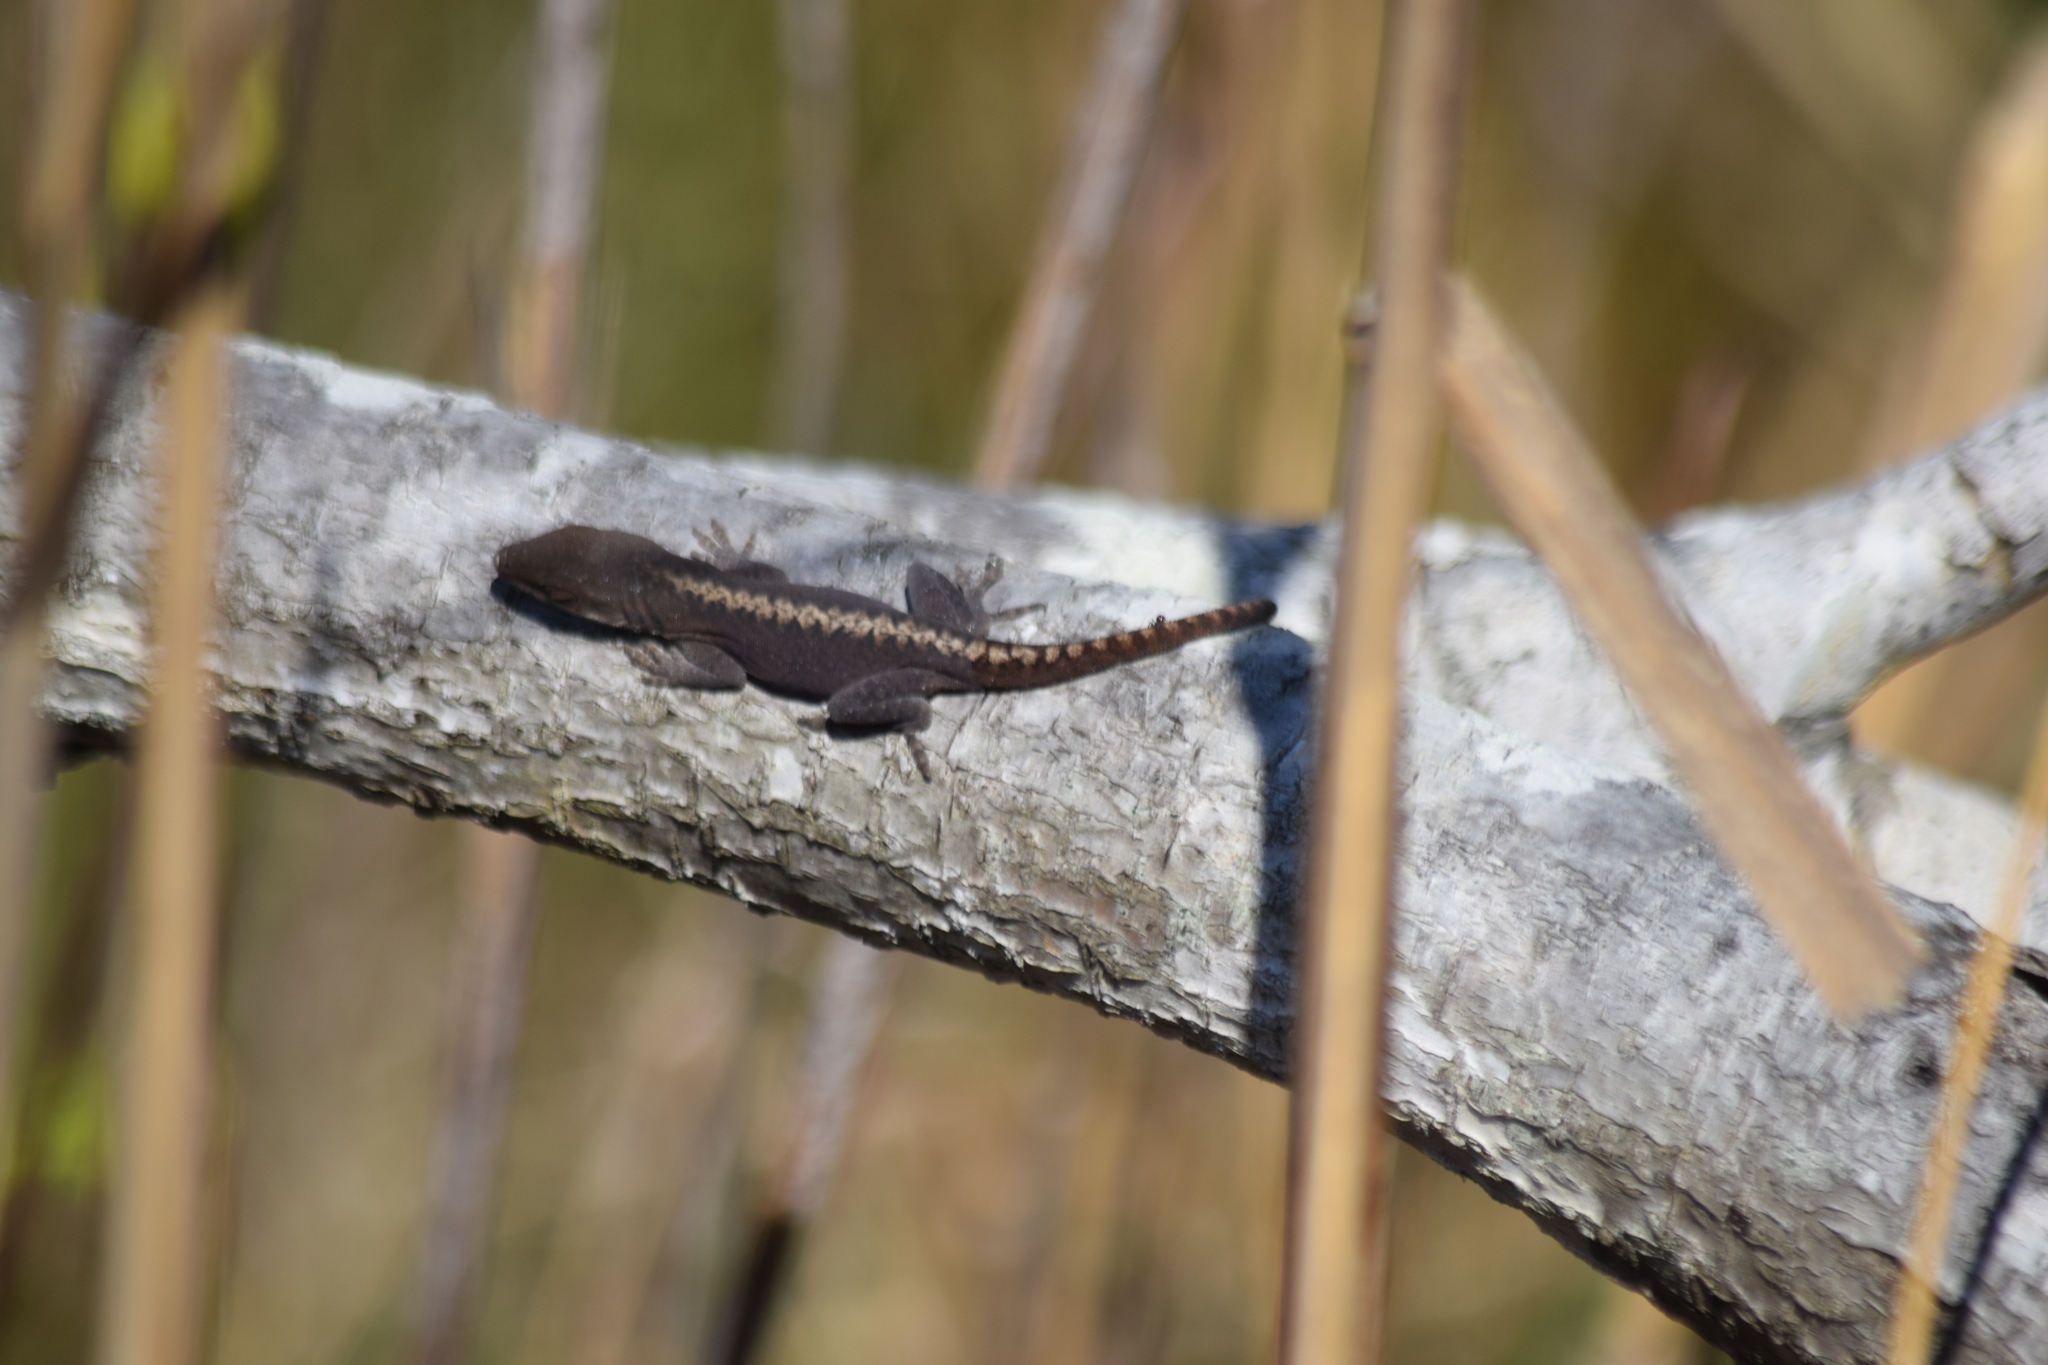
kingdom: Animalia
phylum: Chordata
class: Squamata
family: Dactyloidae
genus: Anolis
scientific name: Anolis carolinensis
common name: Green anole
